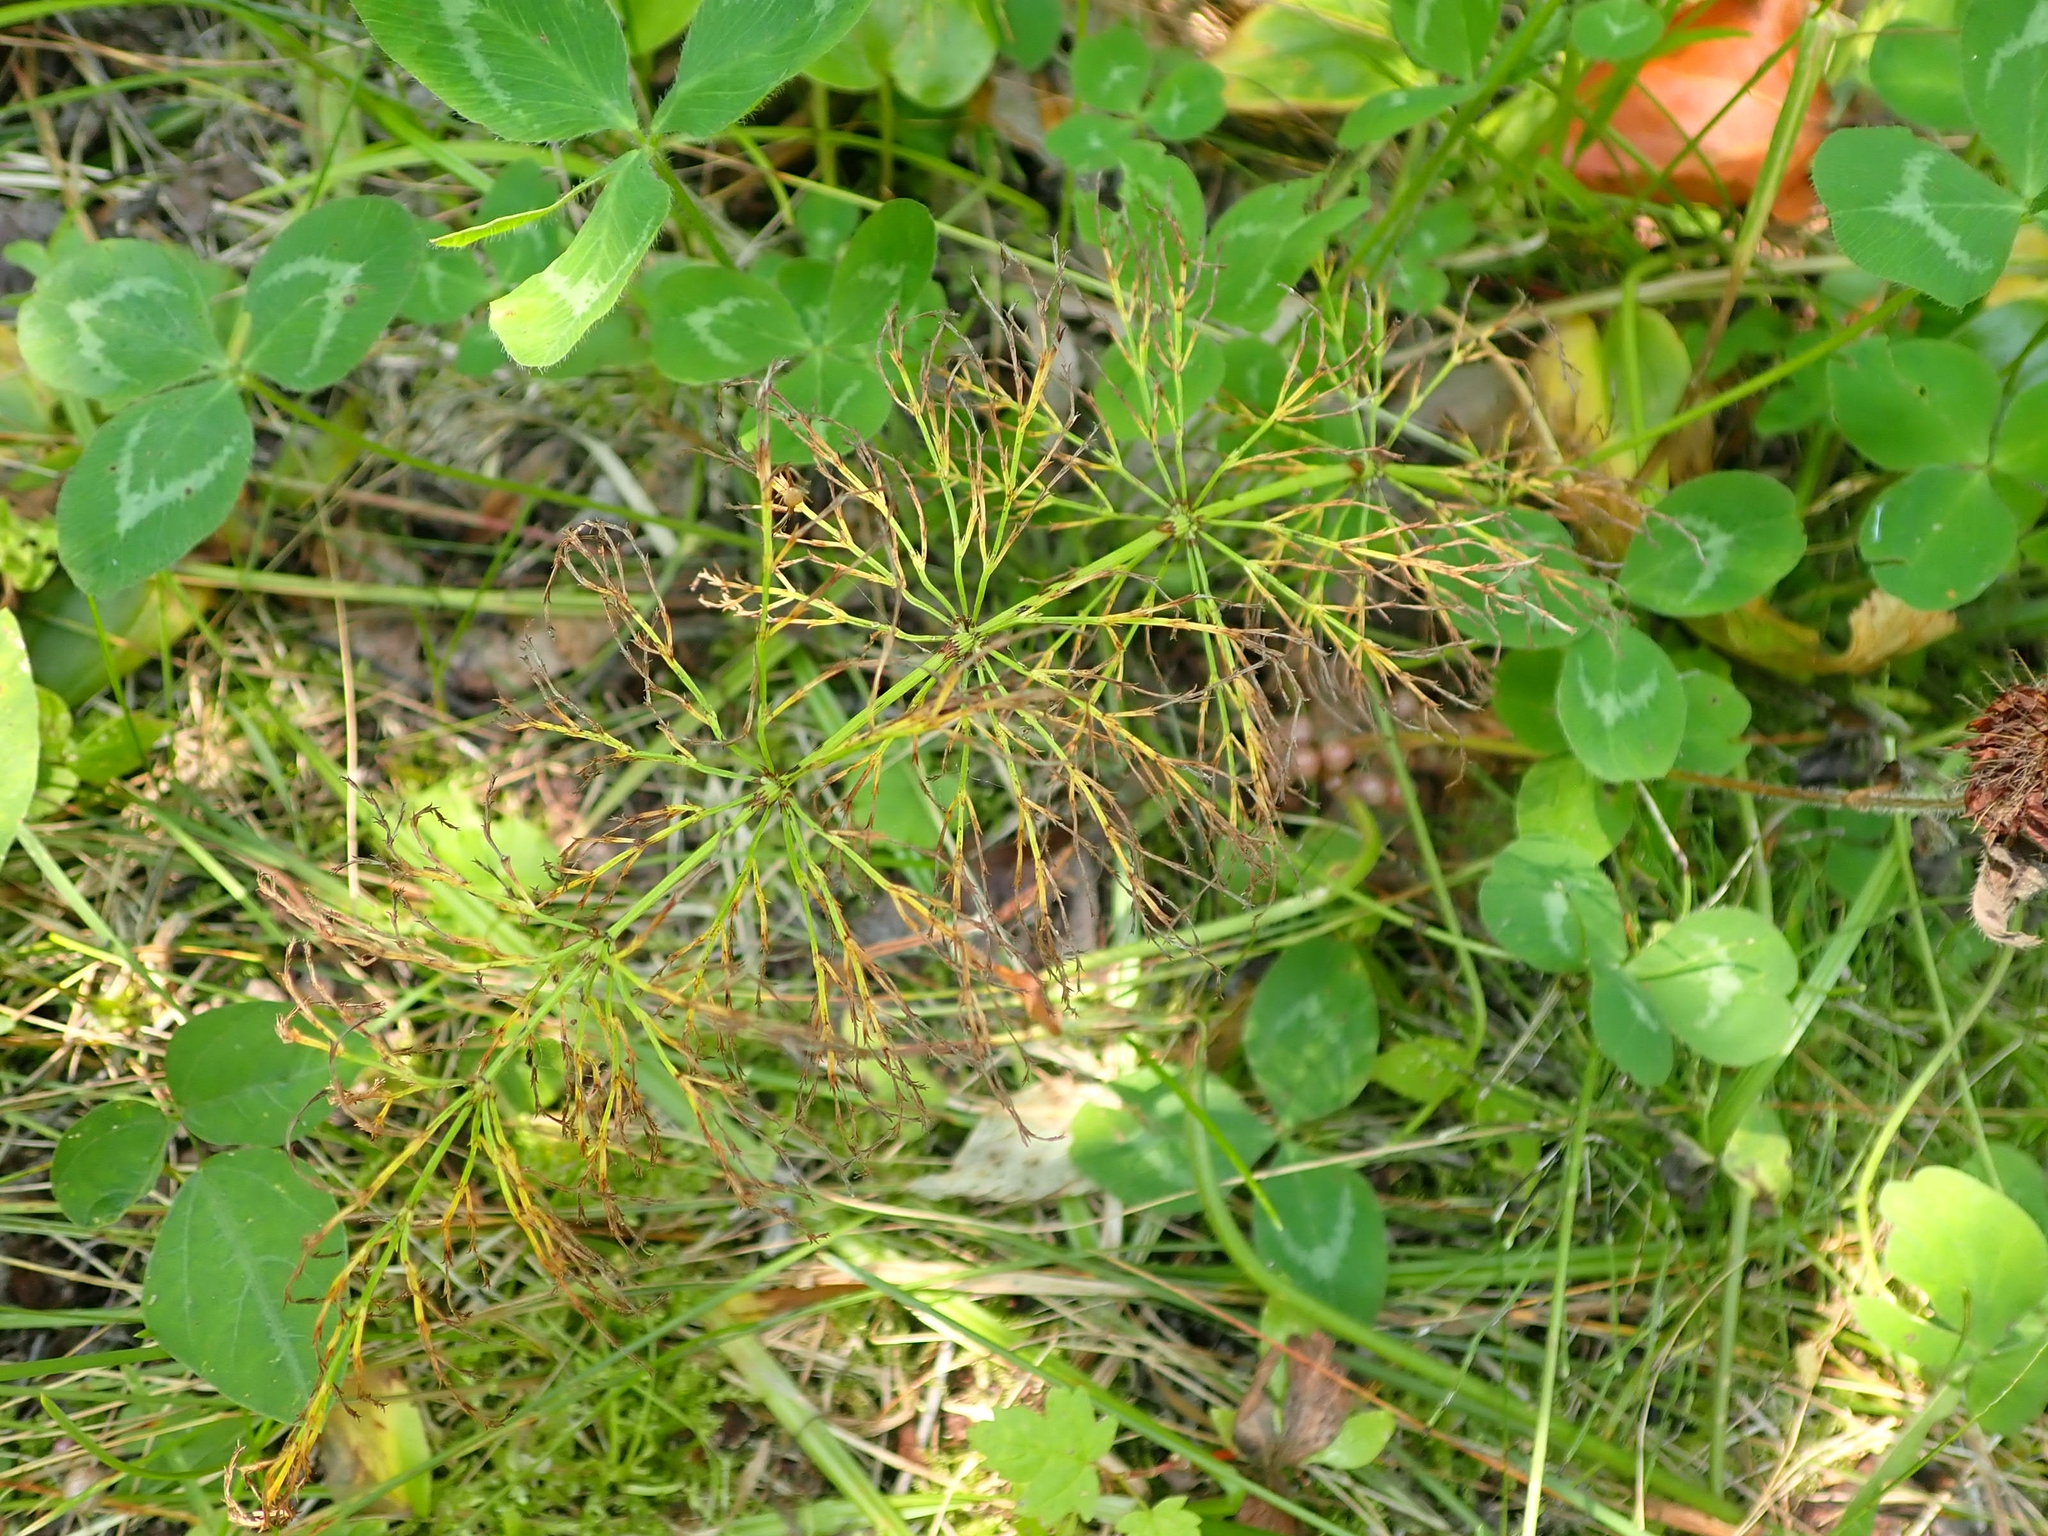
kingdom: Plantae
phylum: Tracheophyta
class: Polypodiopsida
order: Equisetales
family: Equisetaceae
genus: Equisetum
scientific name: Equisetum sylvaticum
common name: Wood horsetail
